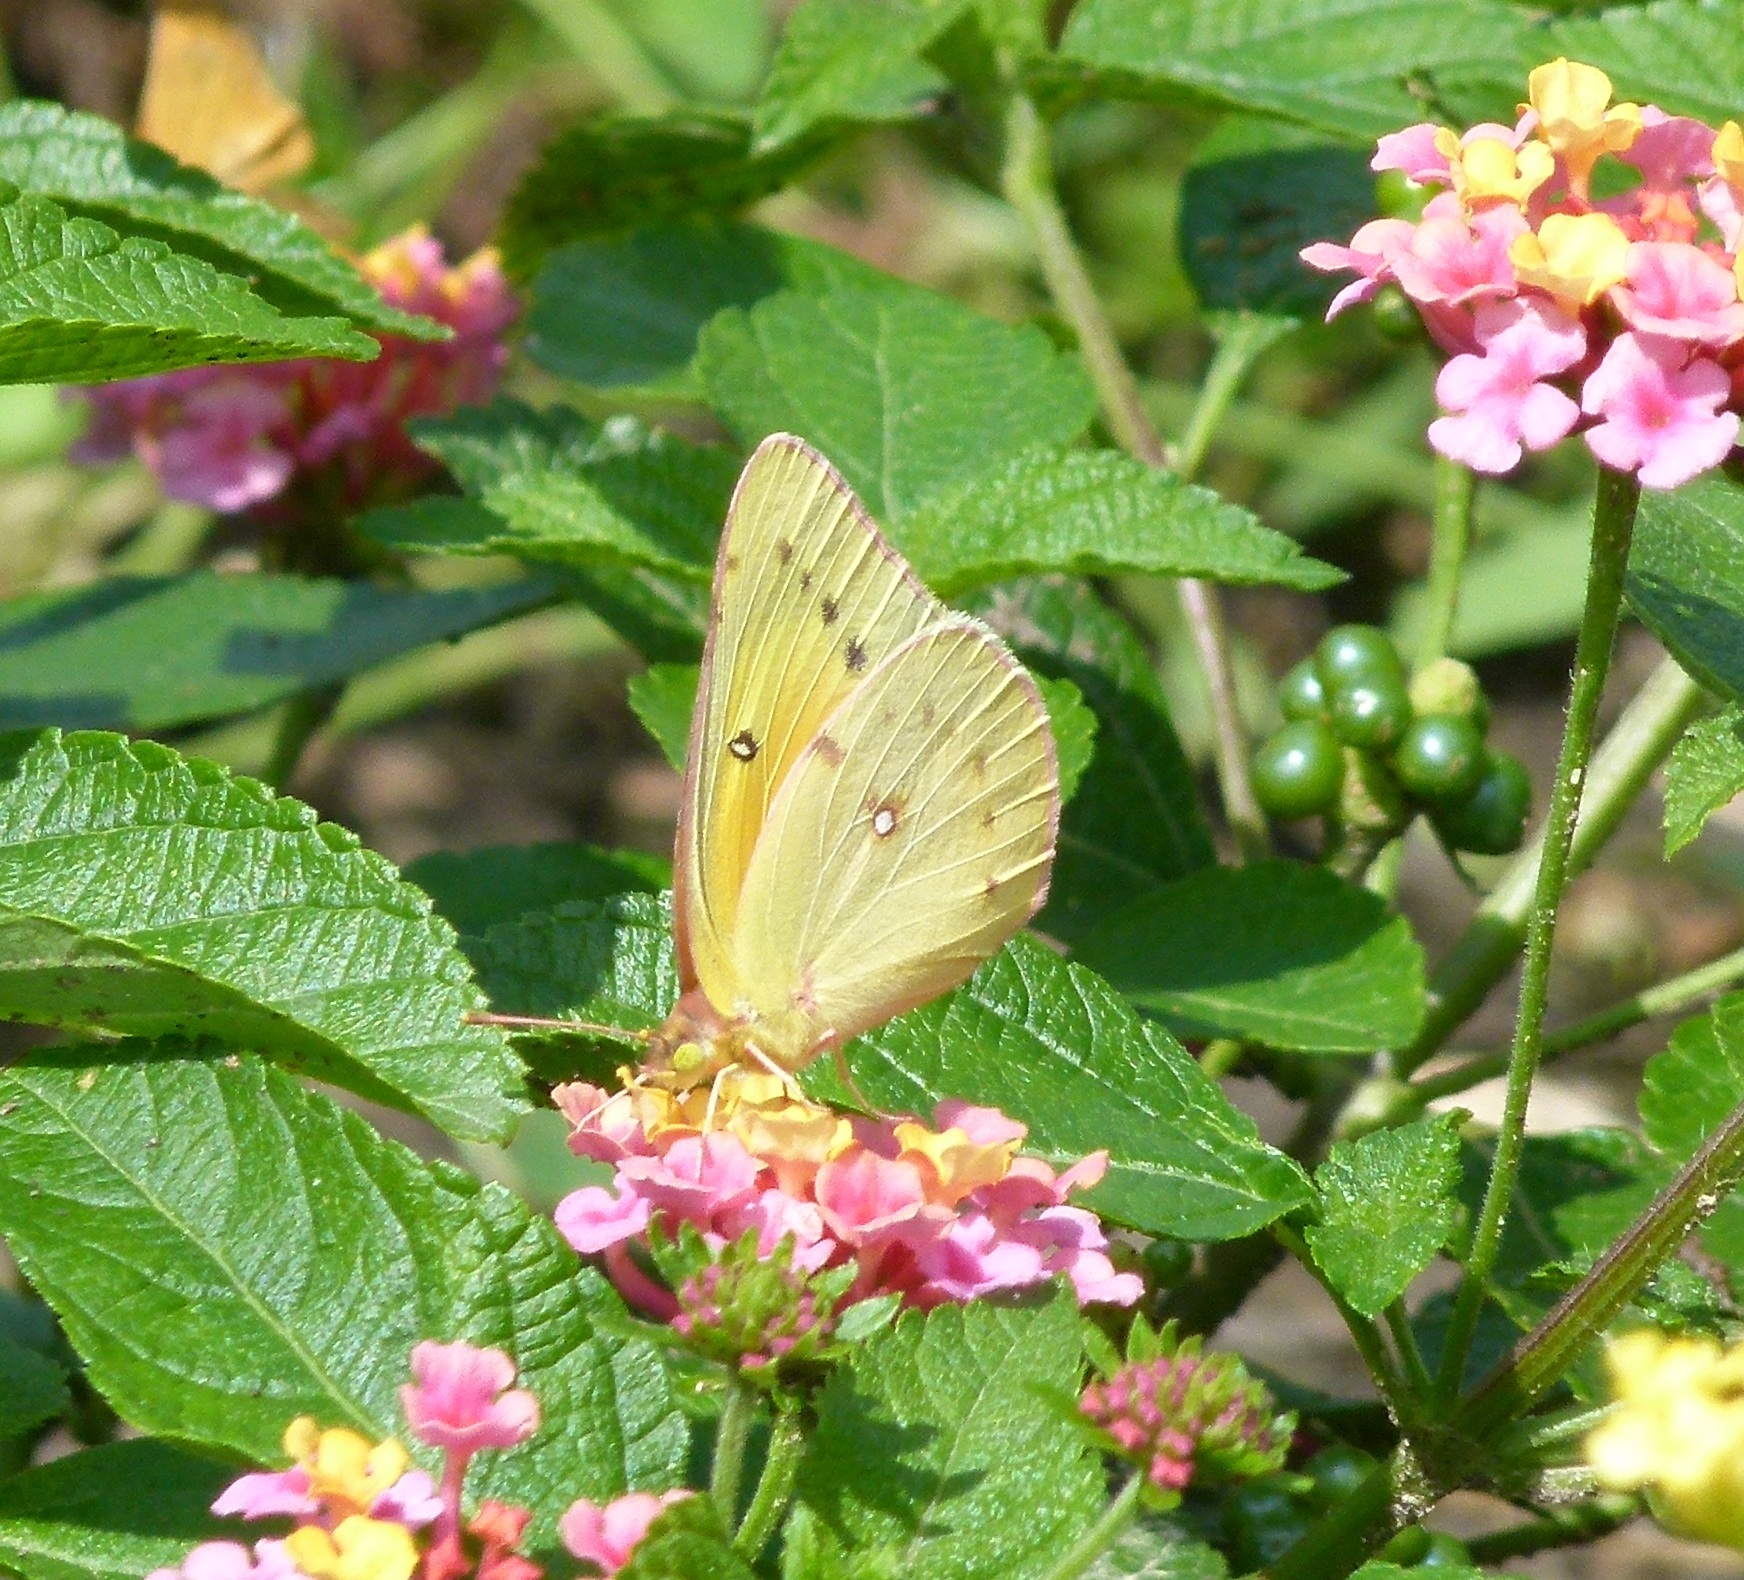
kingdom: Animalia
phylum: Arthropoda
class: Insecta
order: Lepidoptera
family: Pieridae
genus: Colias
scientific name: Colias eurytheme
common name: Alfalfa butterfly
